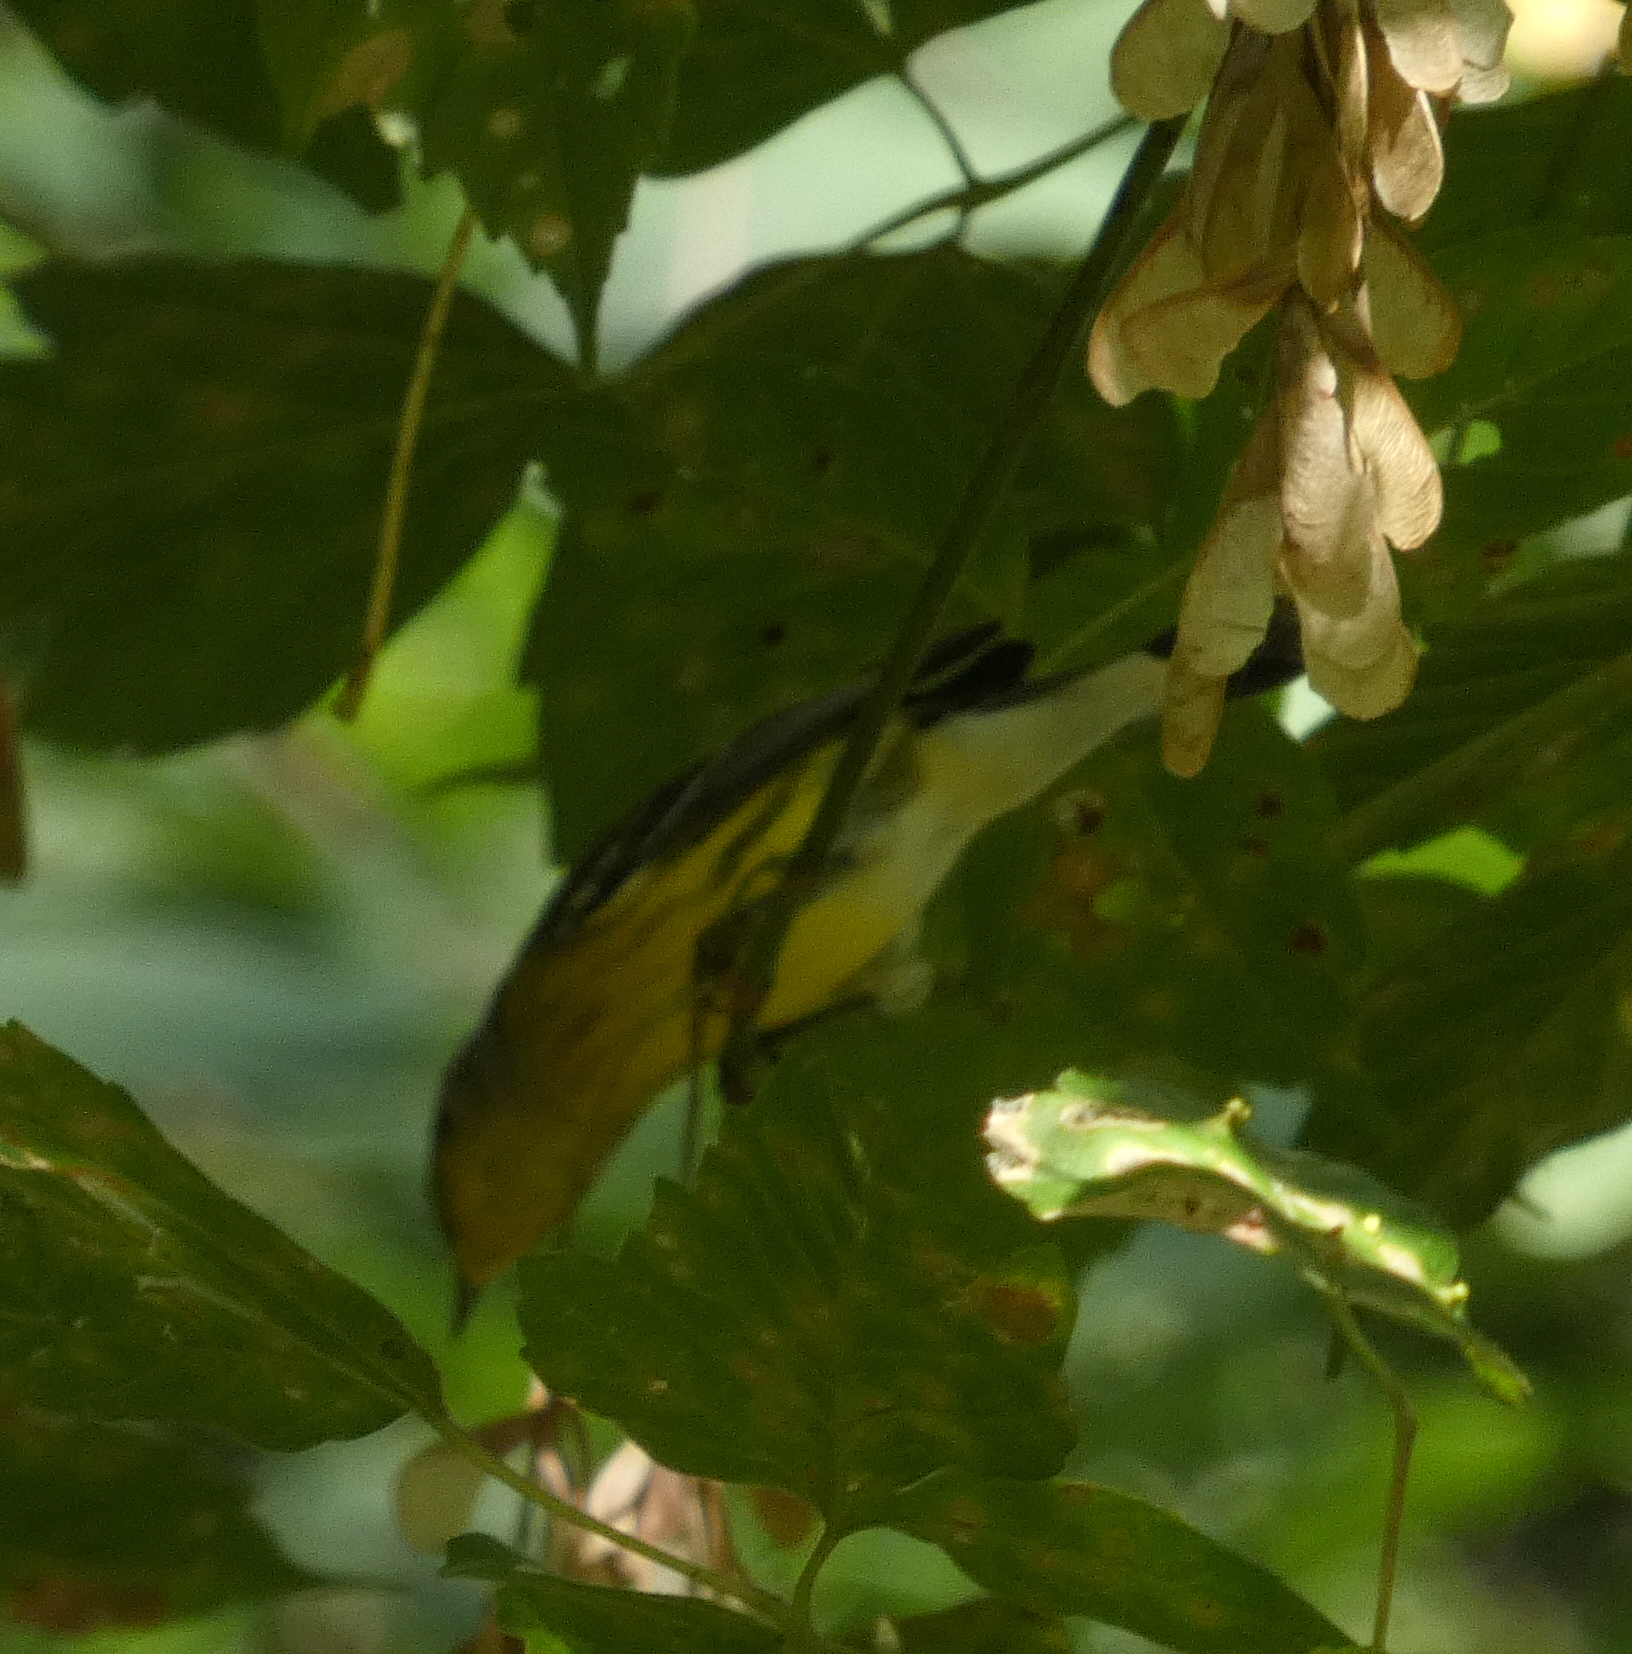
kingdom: Animalia
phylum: Chordata
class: Aves
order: Passeriformes
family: Parulidae
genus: Setophaga
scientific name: Setophaga magnolia
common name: Magnolia warbler
